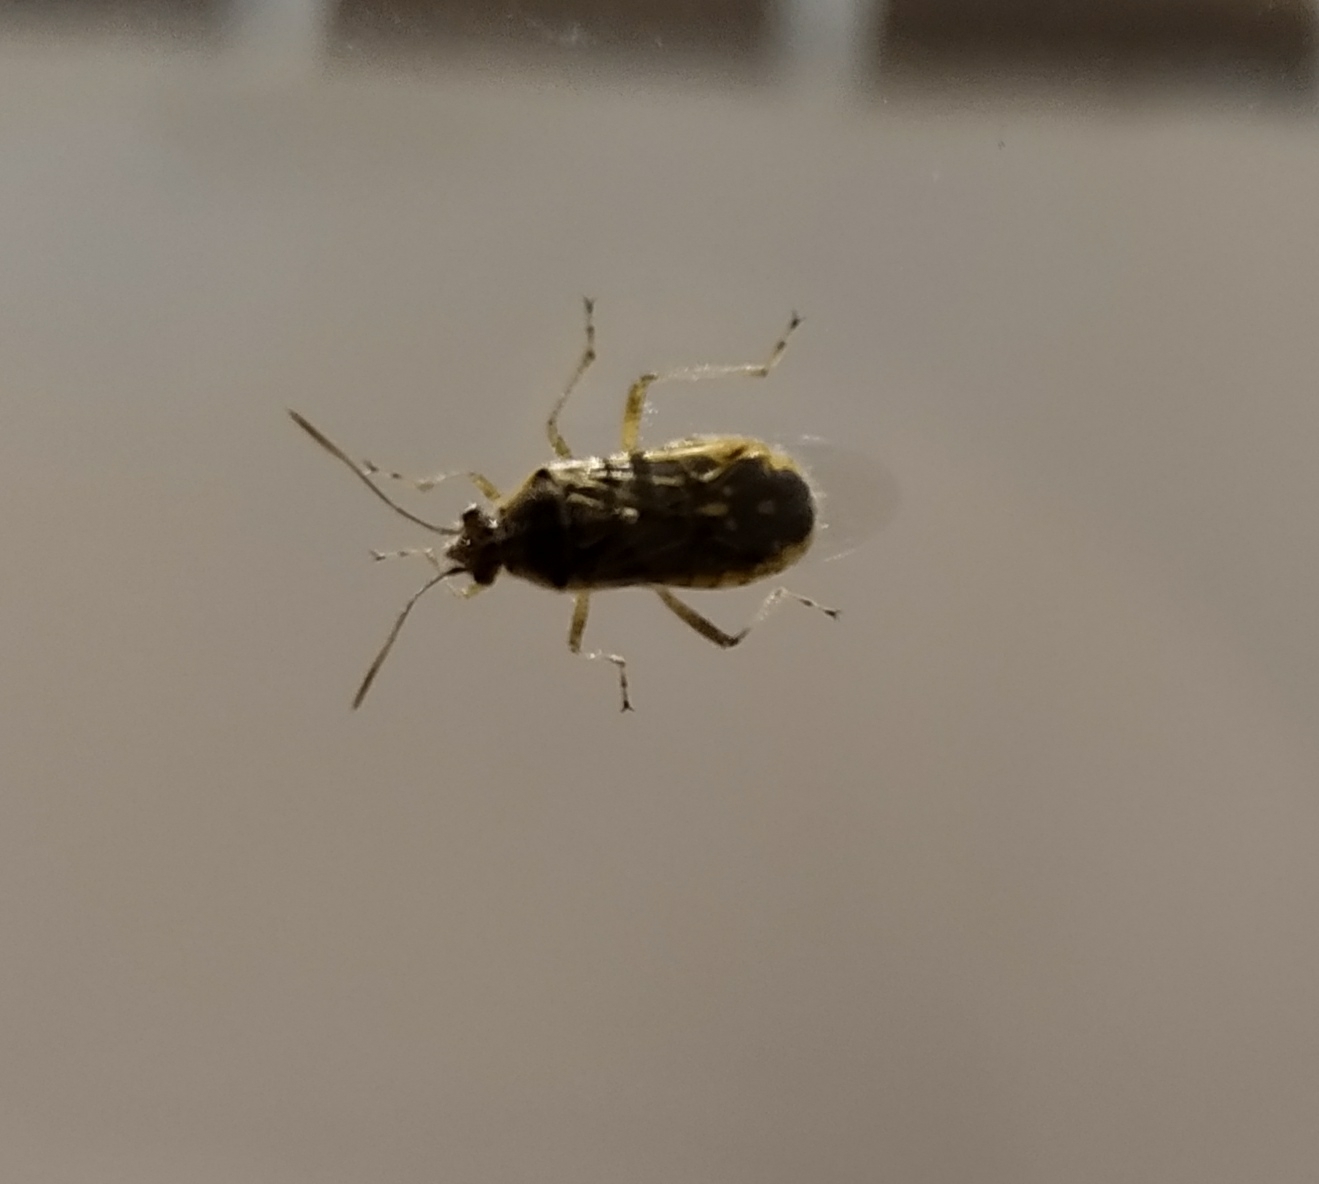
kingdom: Animalia
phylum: Arthropoda
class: Insecta
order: Hemiptera
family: Rhopalidae
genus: Liorhyssus
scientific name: Liorhyssus hyalinus
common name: Scentless plant bug
